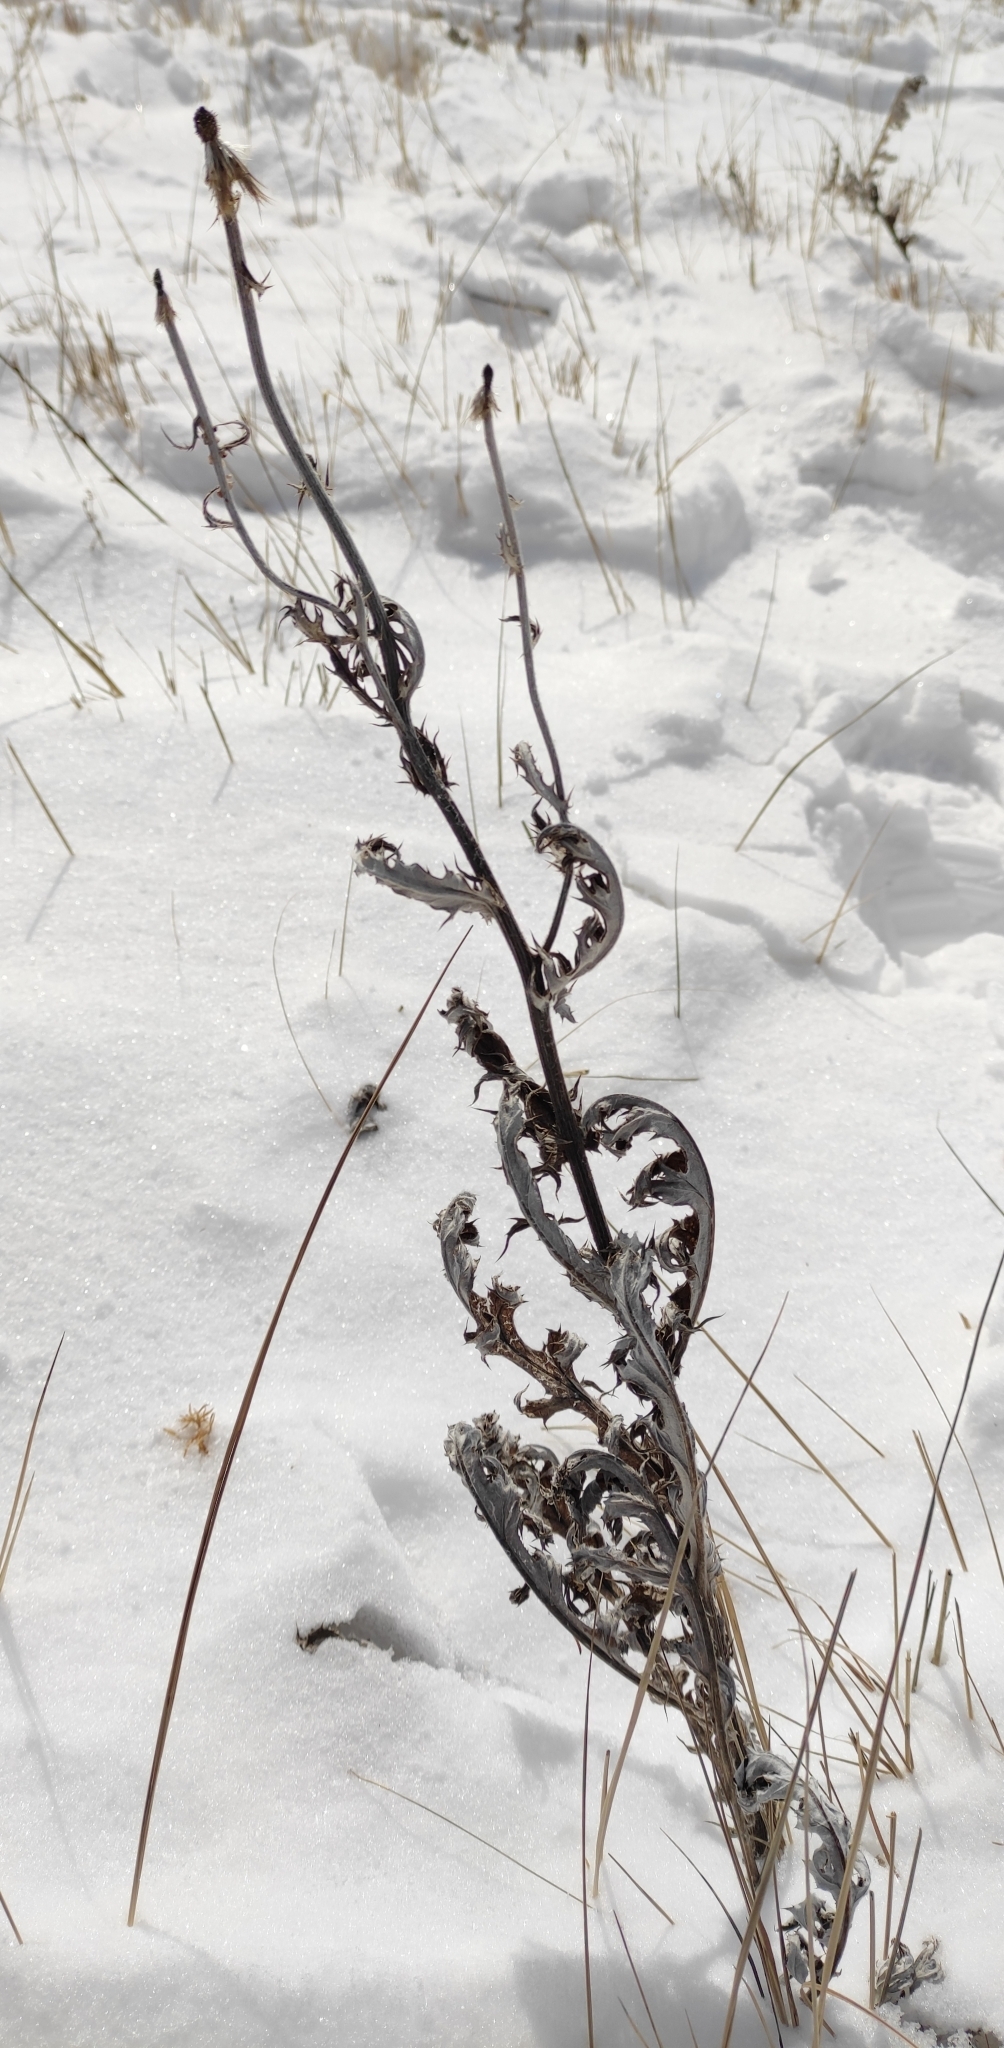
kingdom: Plantae
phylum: Tracheophyta
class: Magnoliopsida
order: Asterales
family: Asteraceae
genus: Echinops
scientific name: Echinops davuricus
